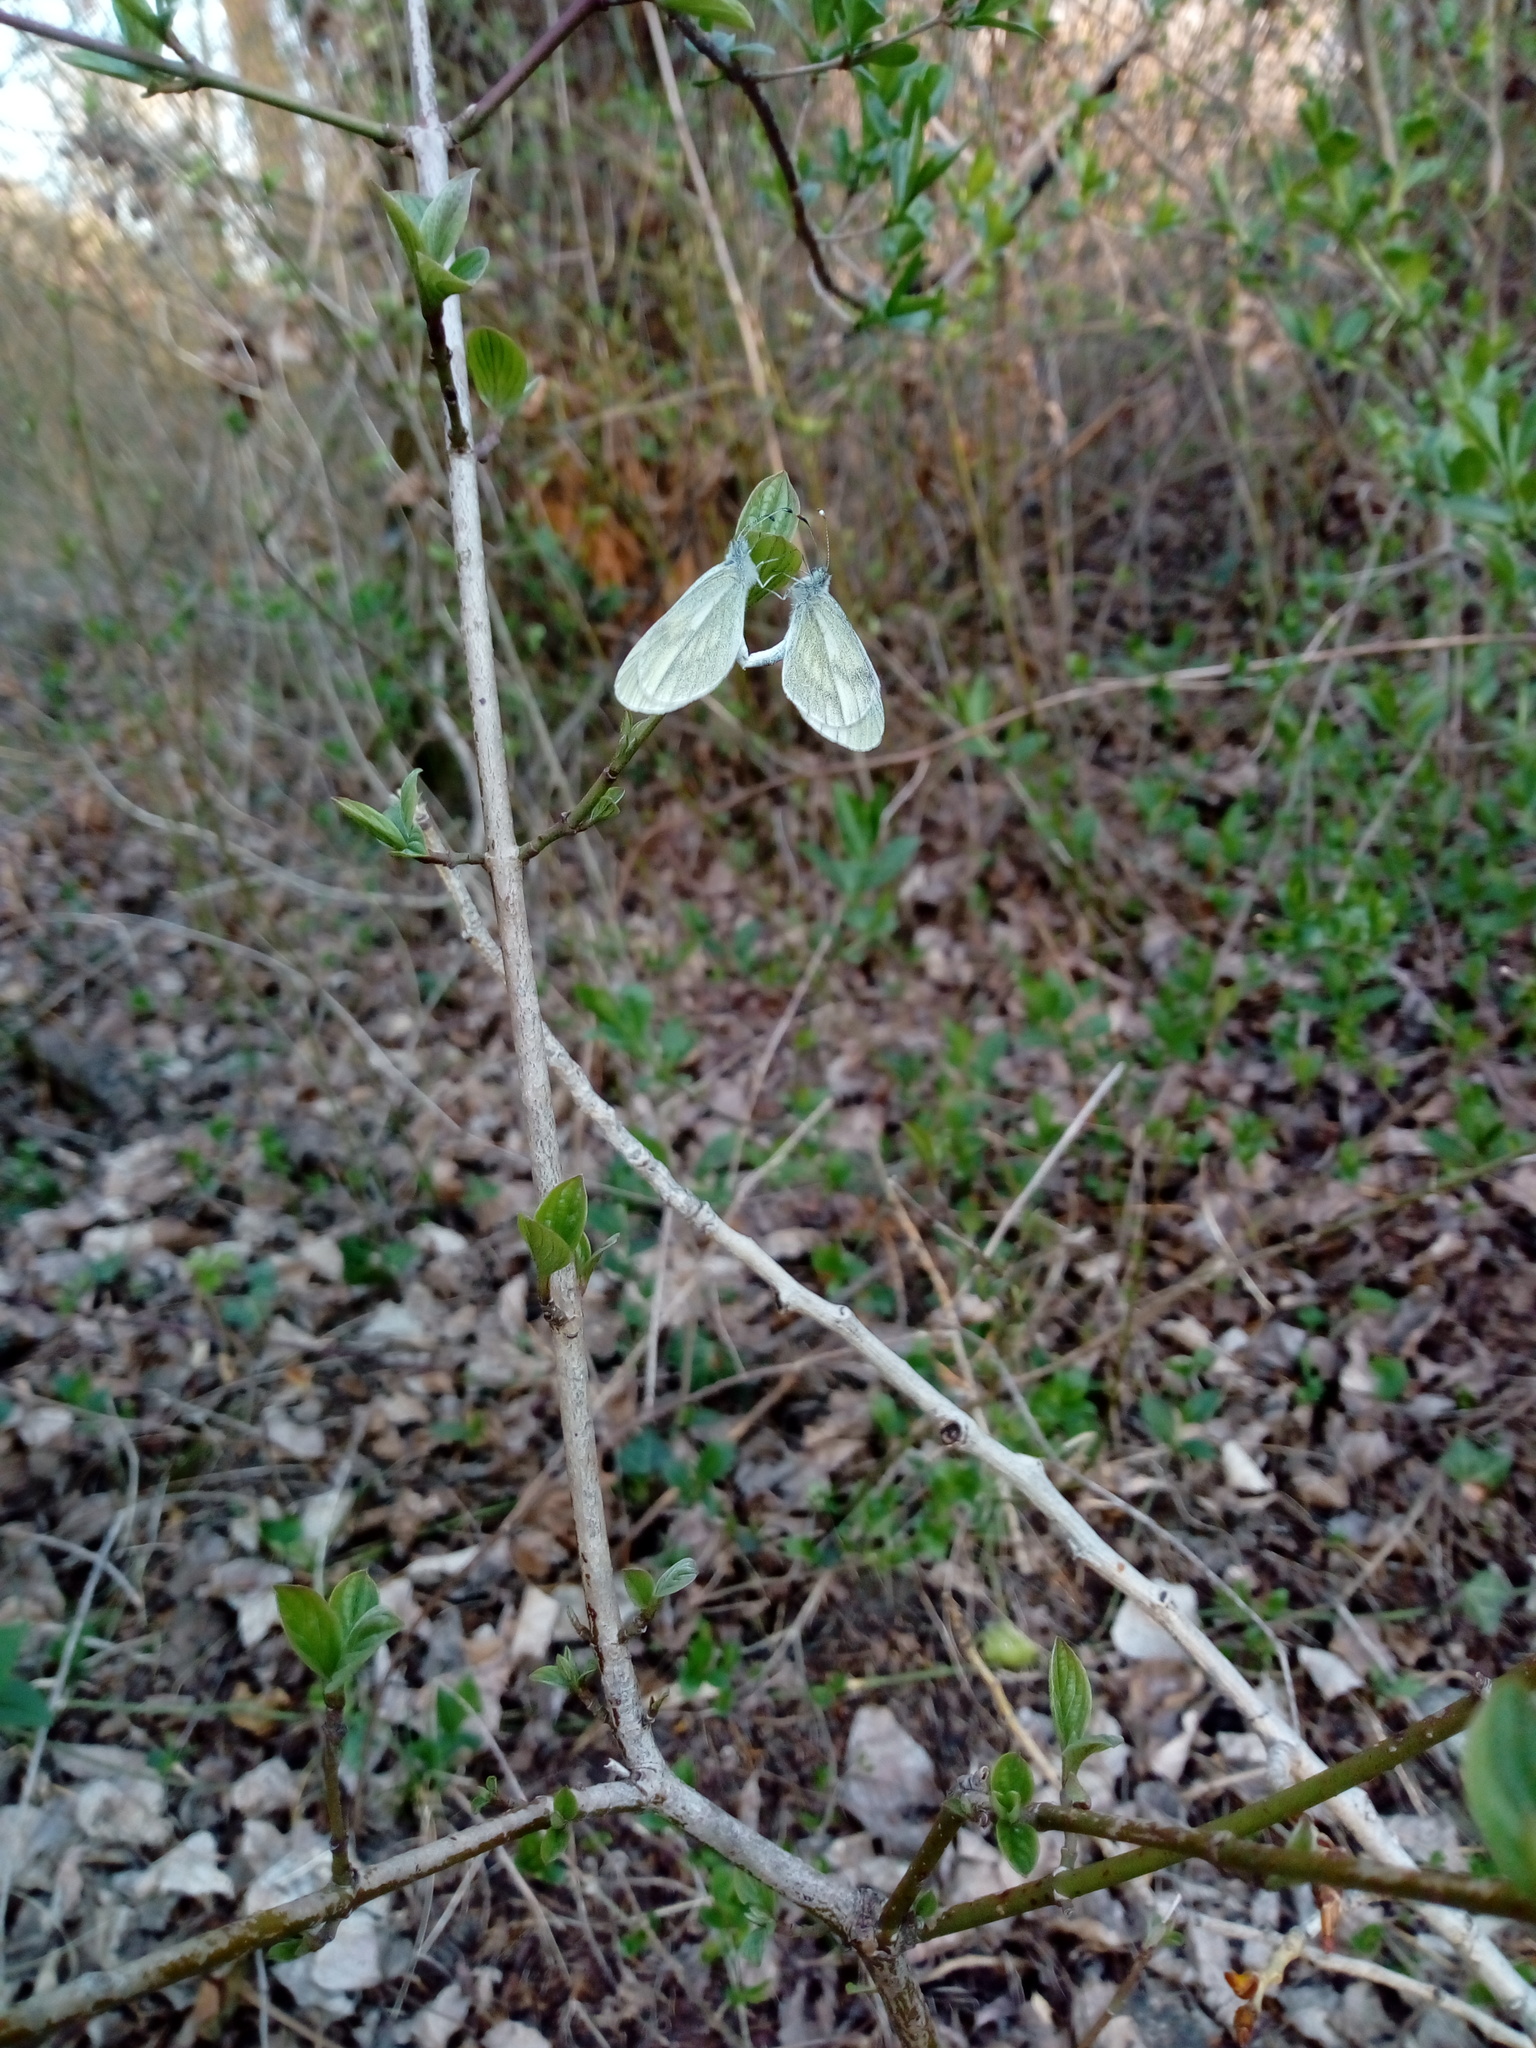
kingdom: Animalia
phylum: Arthropoda
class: Insecta
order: Lepidoptera
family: Pieridae
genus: Leptidea
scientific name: Leptidea
